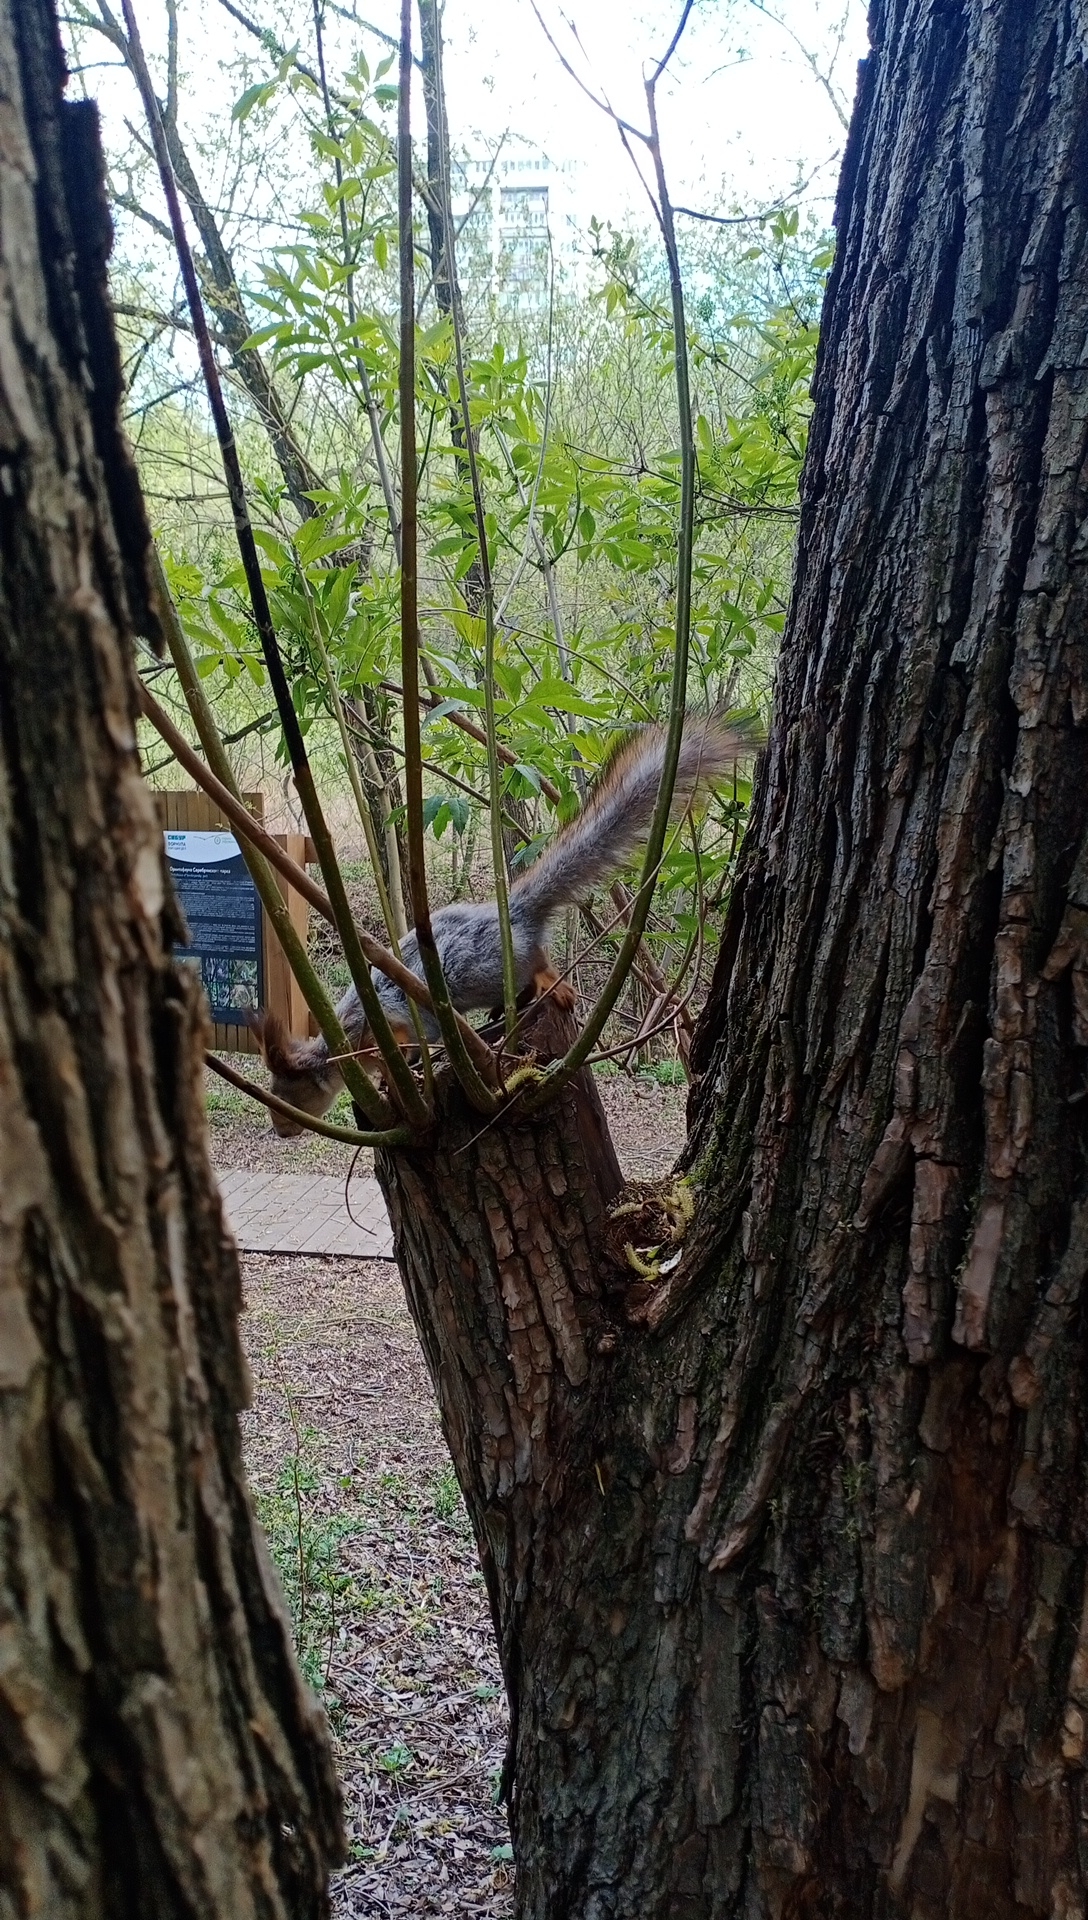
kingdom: Animalia
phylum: Chordata
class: Mammalia
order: Rodentia
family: Sciuridae
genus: Sciurus
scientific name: Sciurus vulgaris
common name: Eurasian red squirrel
